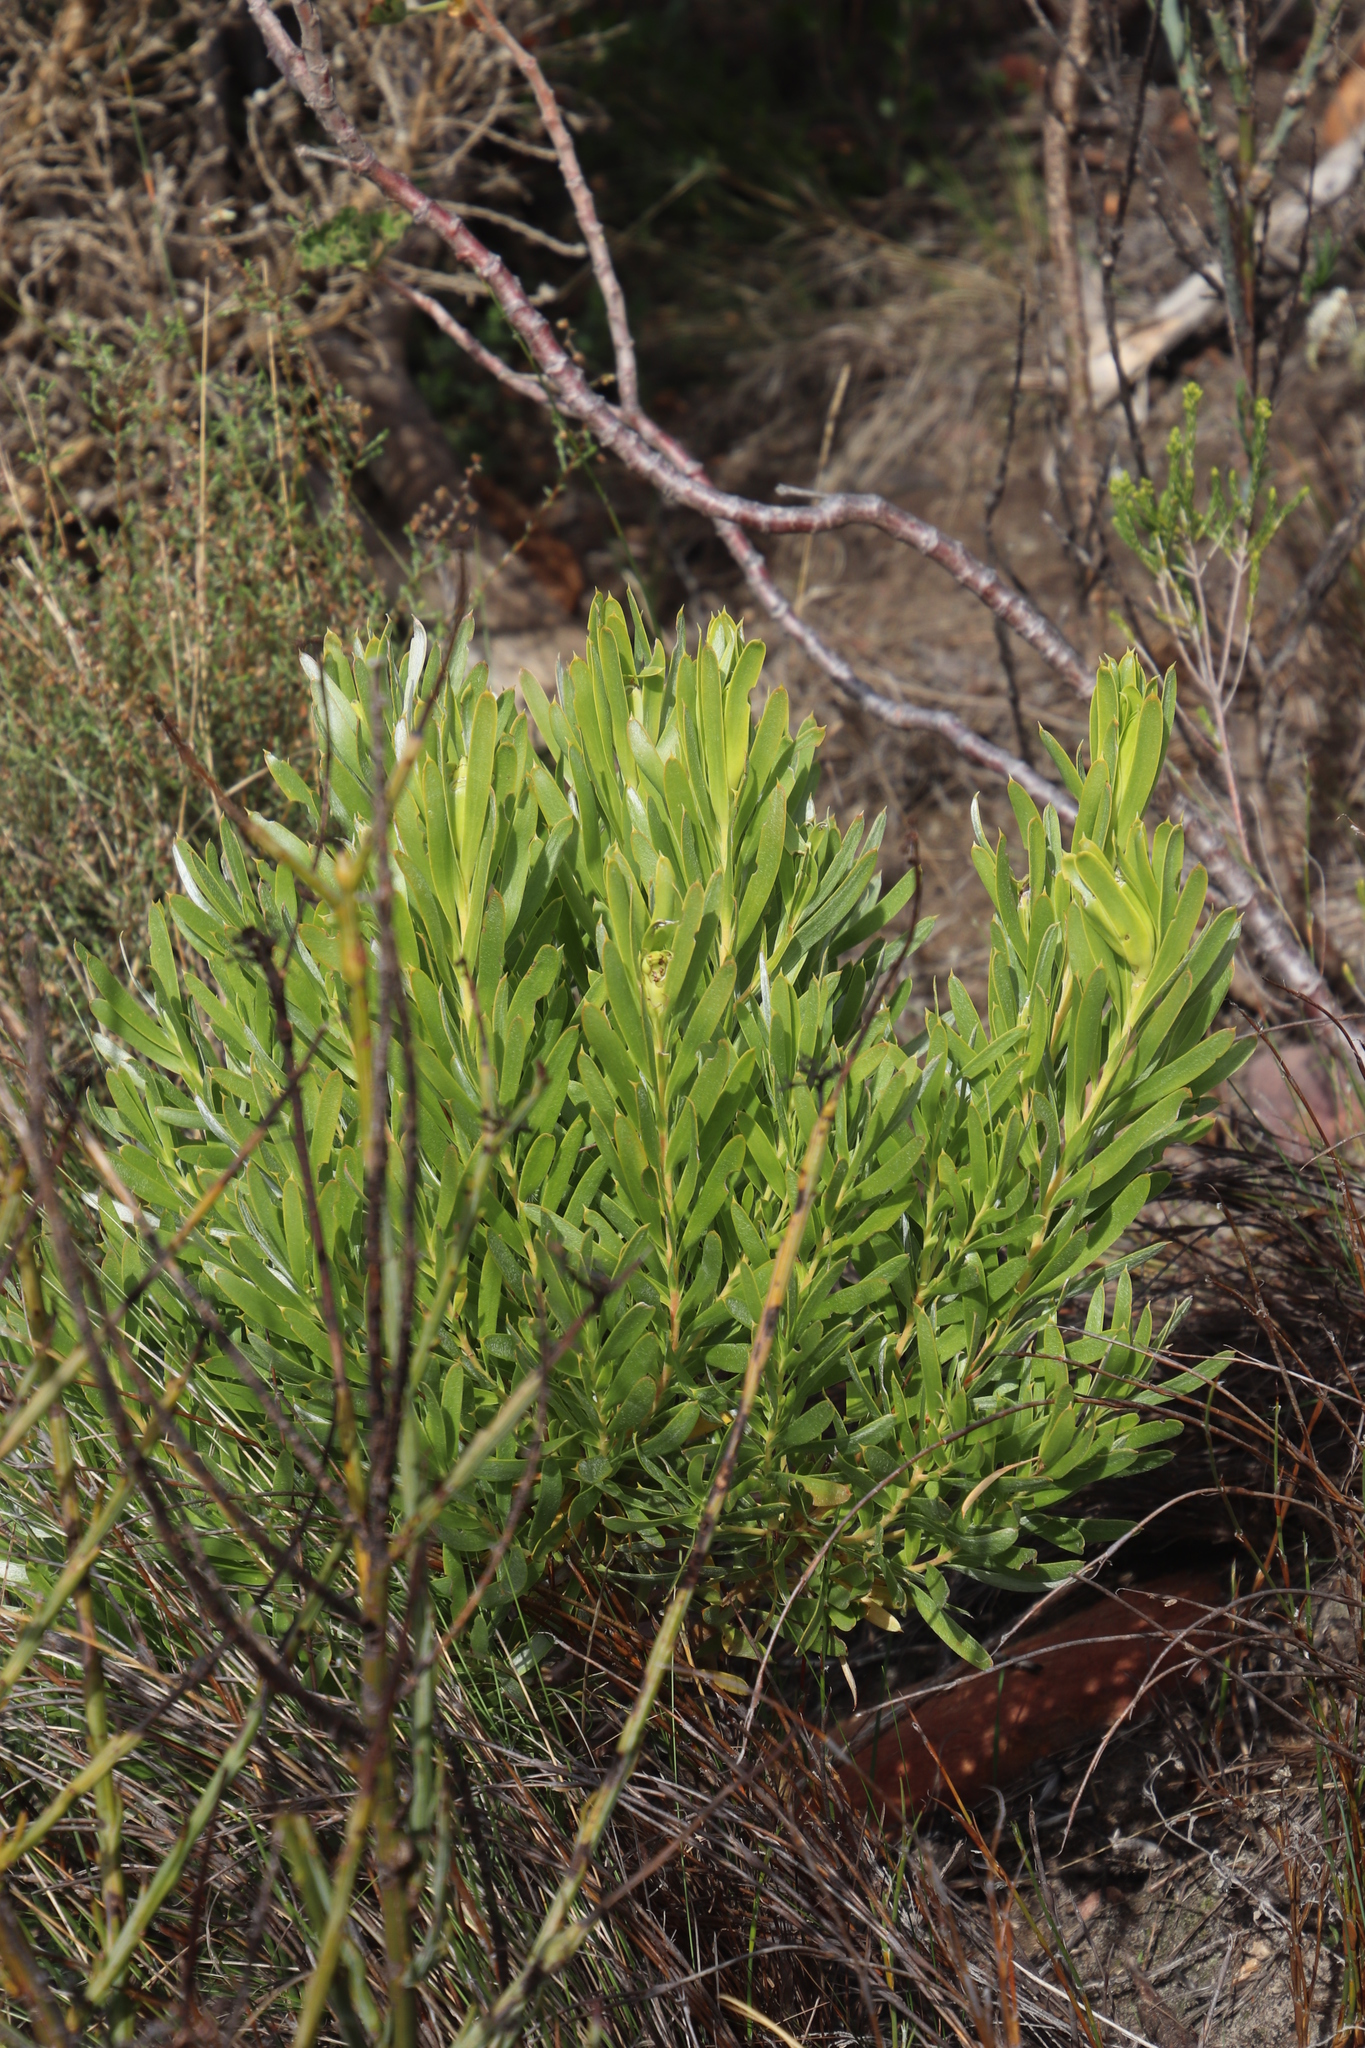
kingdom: Plantae
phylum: Tracheophyta
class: Magnoliopsida
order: Proteales
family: Proteaceae
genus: Leucadendron
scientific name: Leucadendron xanthoconus
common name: Sickle-leaf conebush
